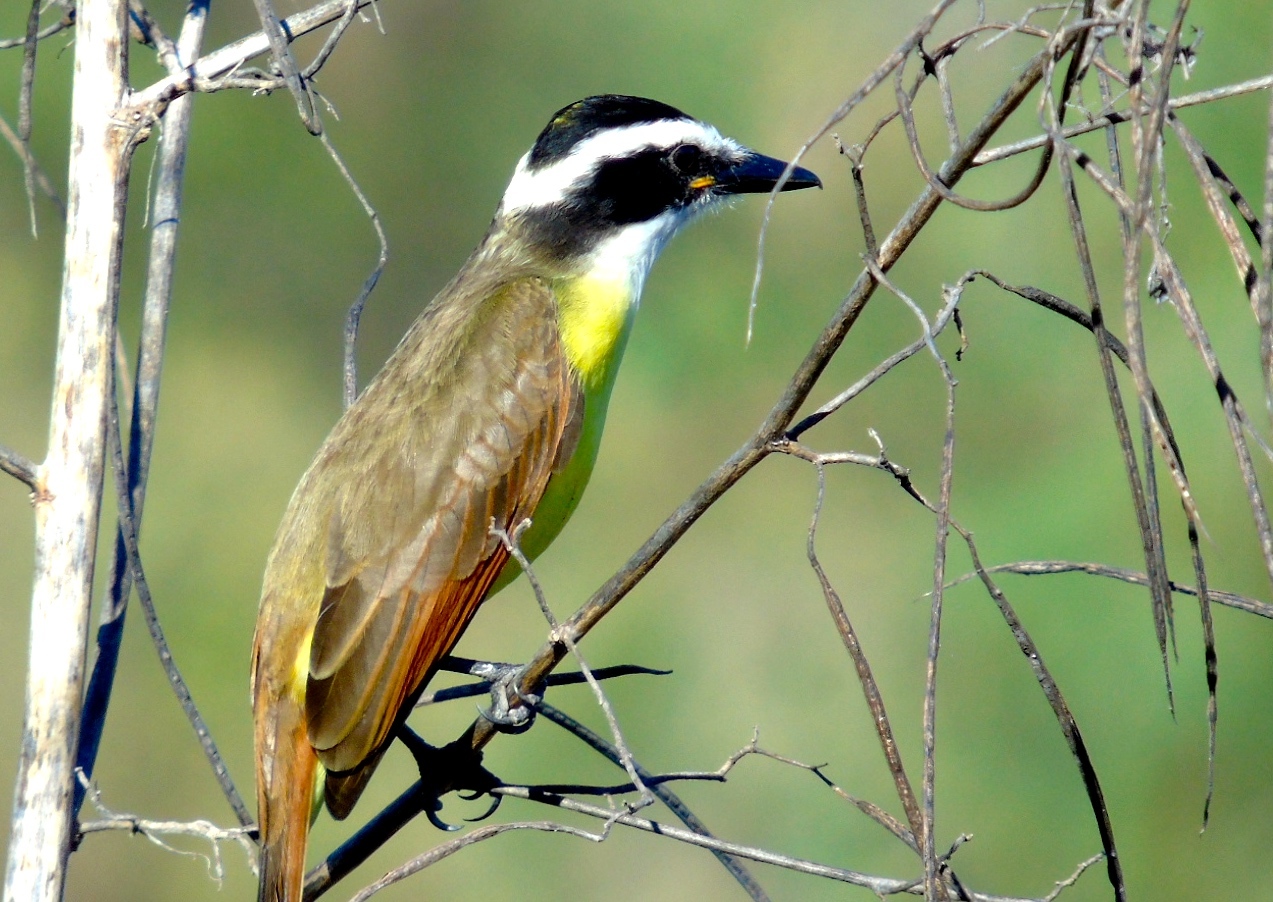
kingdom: Animalia
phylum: Chordata
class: Aves
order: Passeriformes
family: Tyrannidae
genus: Pitangus
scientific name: Pitangus sulphuratus
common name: Great kiskadee
